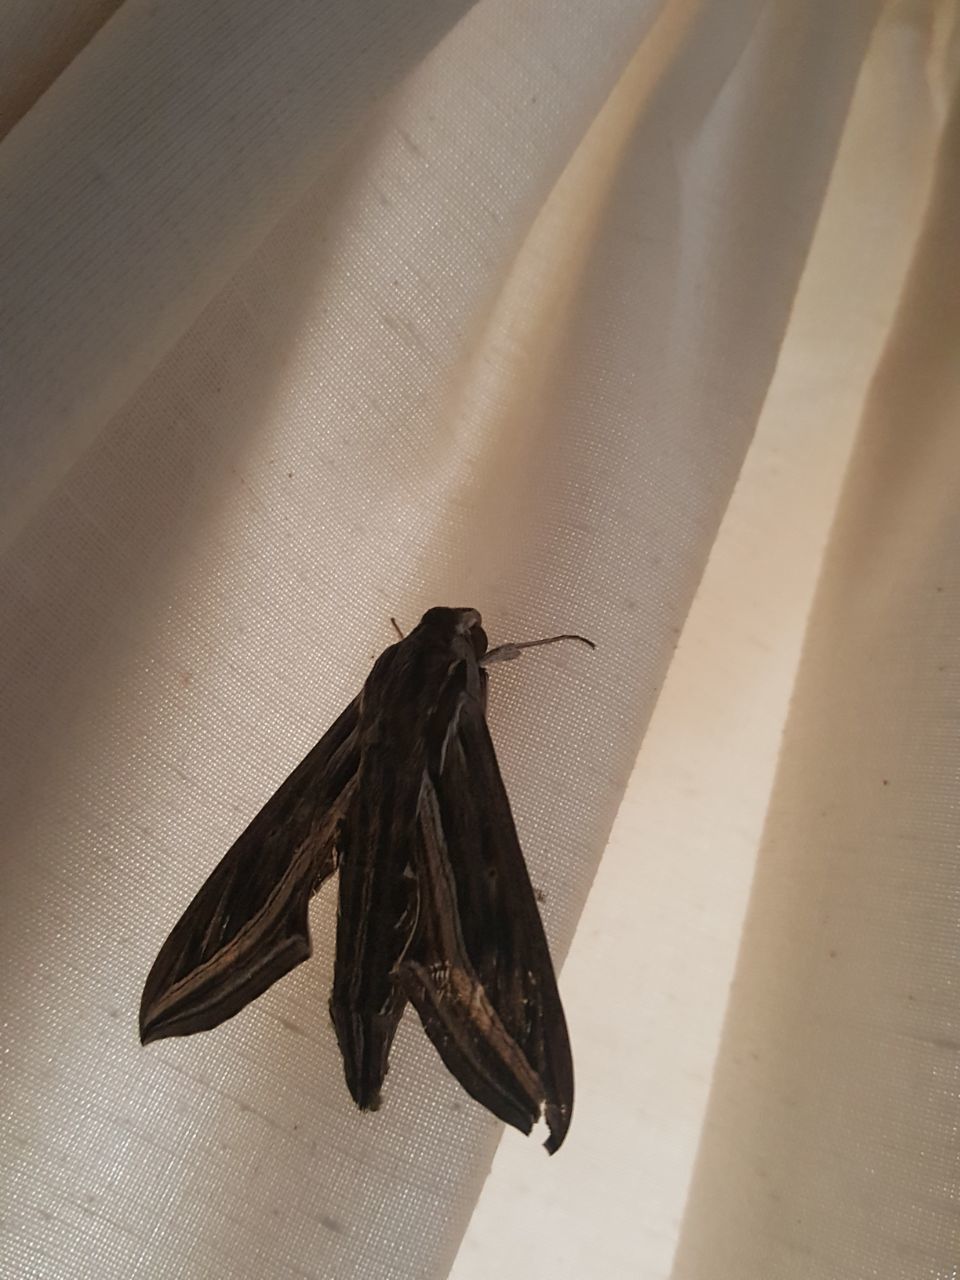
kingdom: Animalia
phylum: Arthropoda
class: Insecta
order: Lepidoptera
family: Sphingidae
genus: Hippotion
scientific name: Hippotion celerio
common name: Silver-striped hawk-moth
